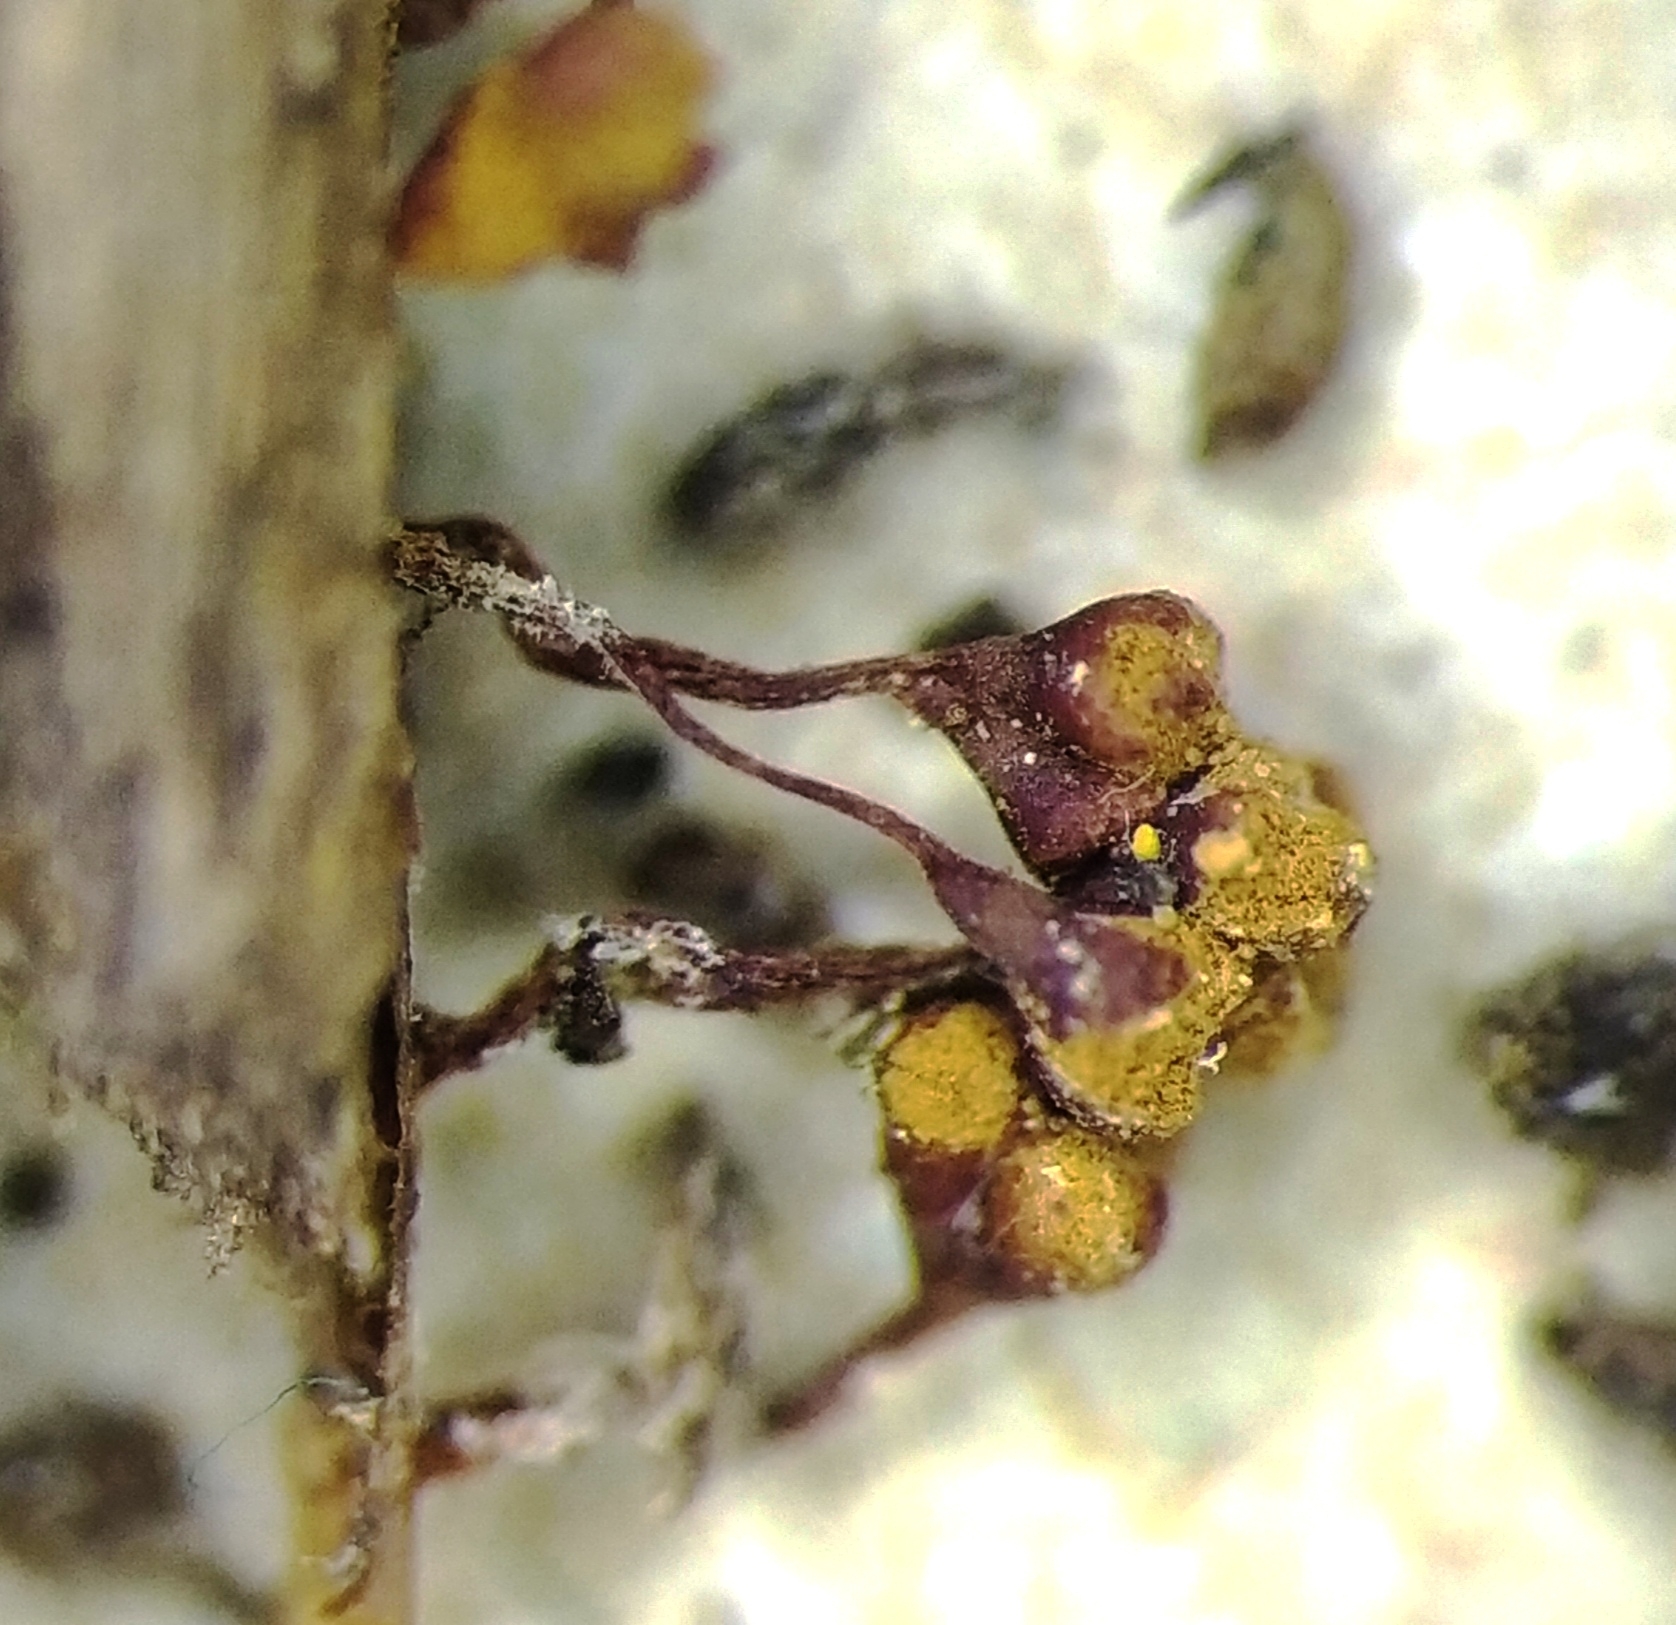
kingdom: Protozoa
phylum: Mycetozoa
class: Myxomycetes
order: Trichiales
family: Trichiaceae
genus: Metatrichia
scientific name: Metatrichia floriformis
